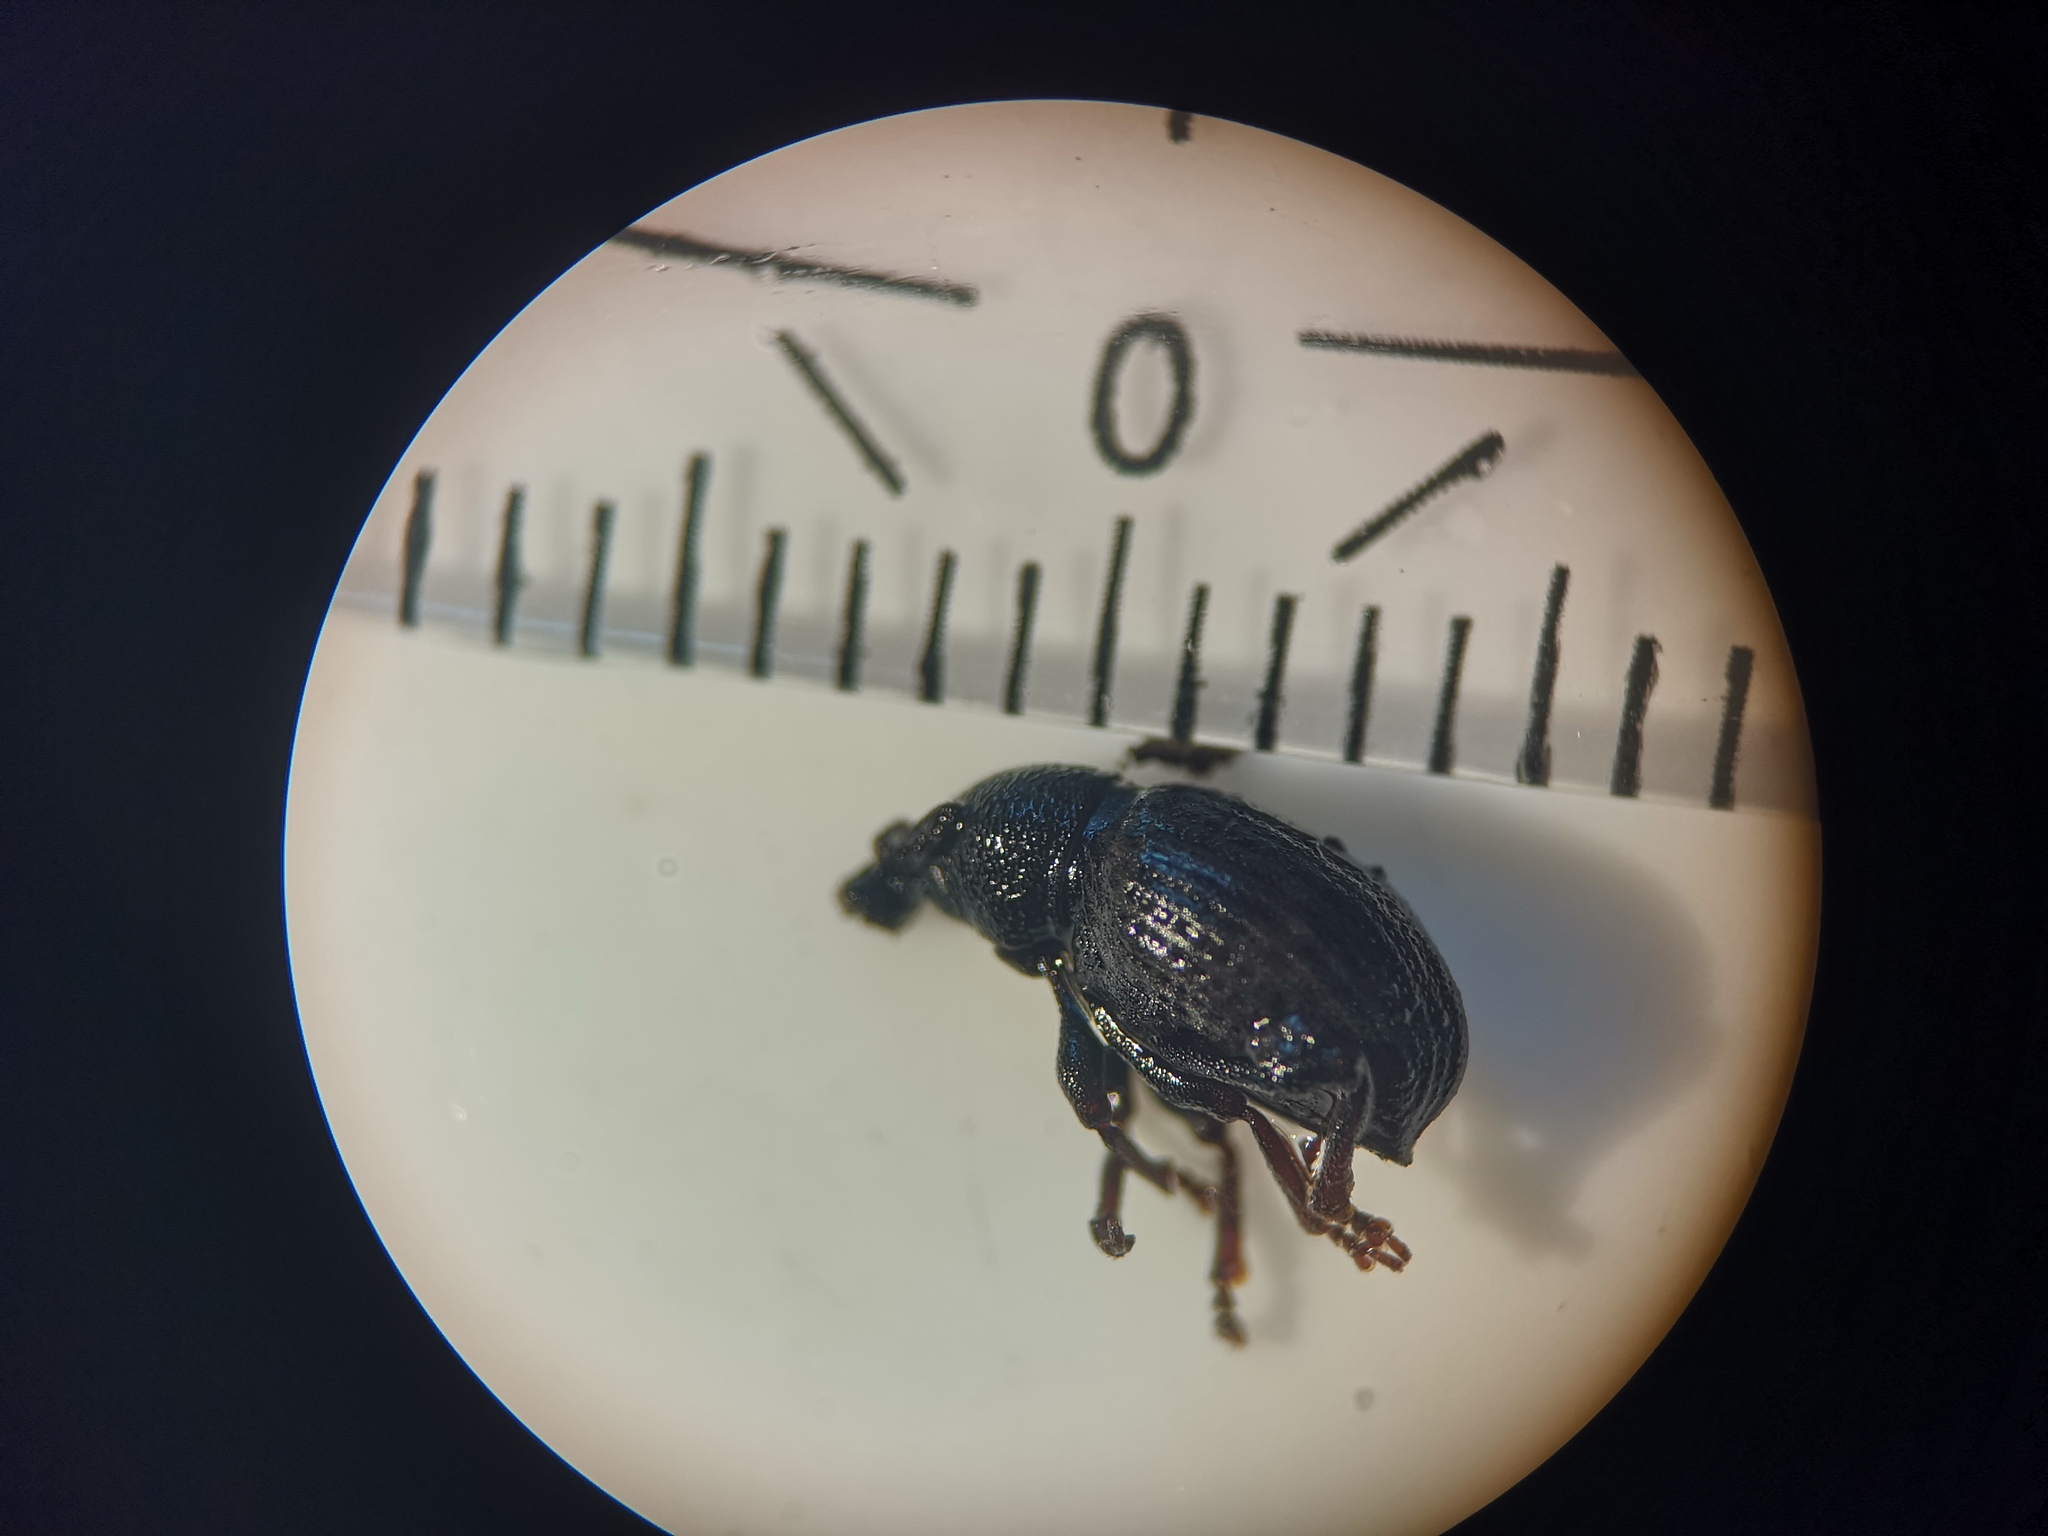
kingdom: Animalia
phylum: Arthropoda
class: Insecta
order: Coleoptera
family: Curculionidae
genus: Otiorhynchus
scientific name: Otiorhynchus raucus
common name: Weevil
